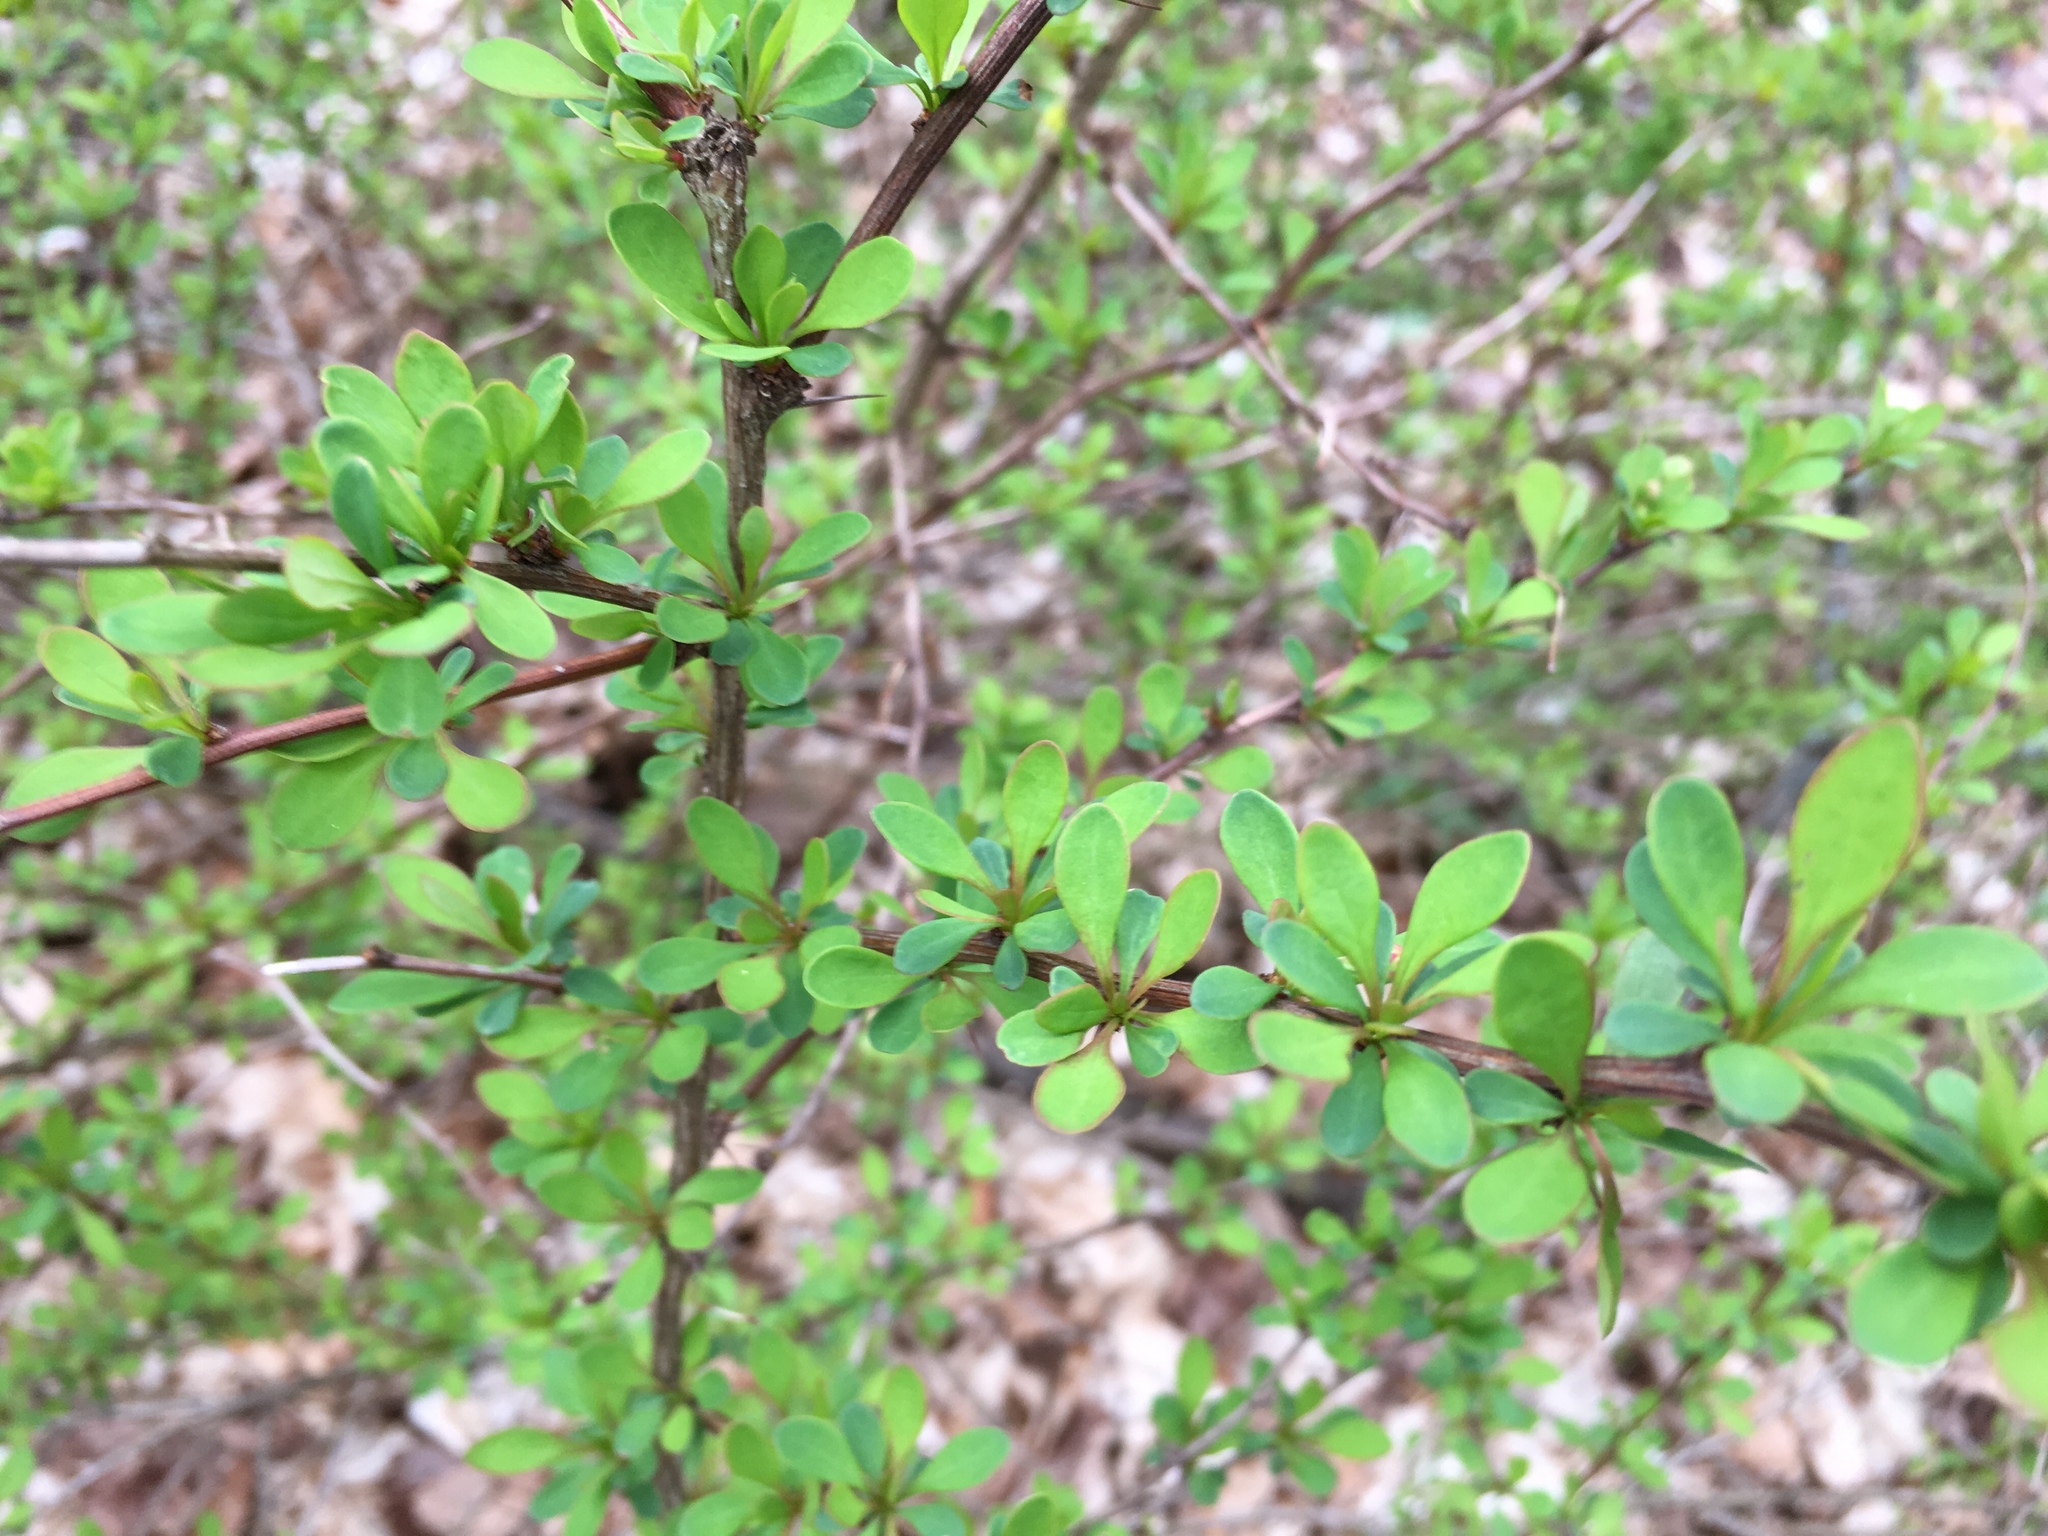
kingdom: Plantae
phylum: Tracheophyta
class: Magnoliopsida
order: Ranunculales
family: Berberidaceae
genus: Berberis
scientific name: Berberis thunbergii
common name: Japanese barberry
